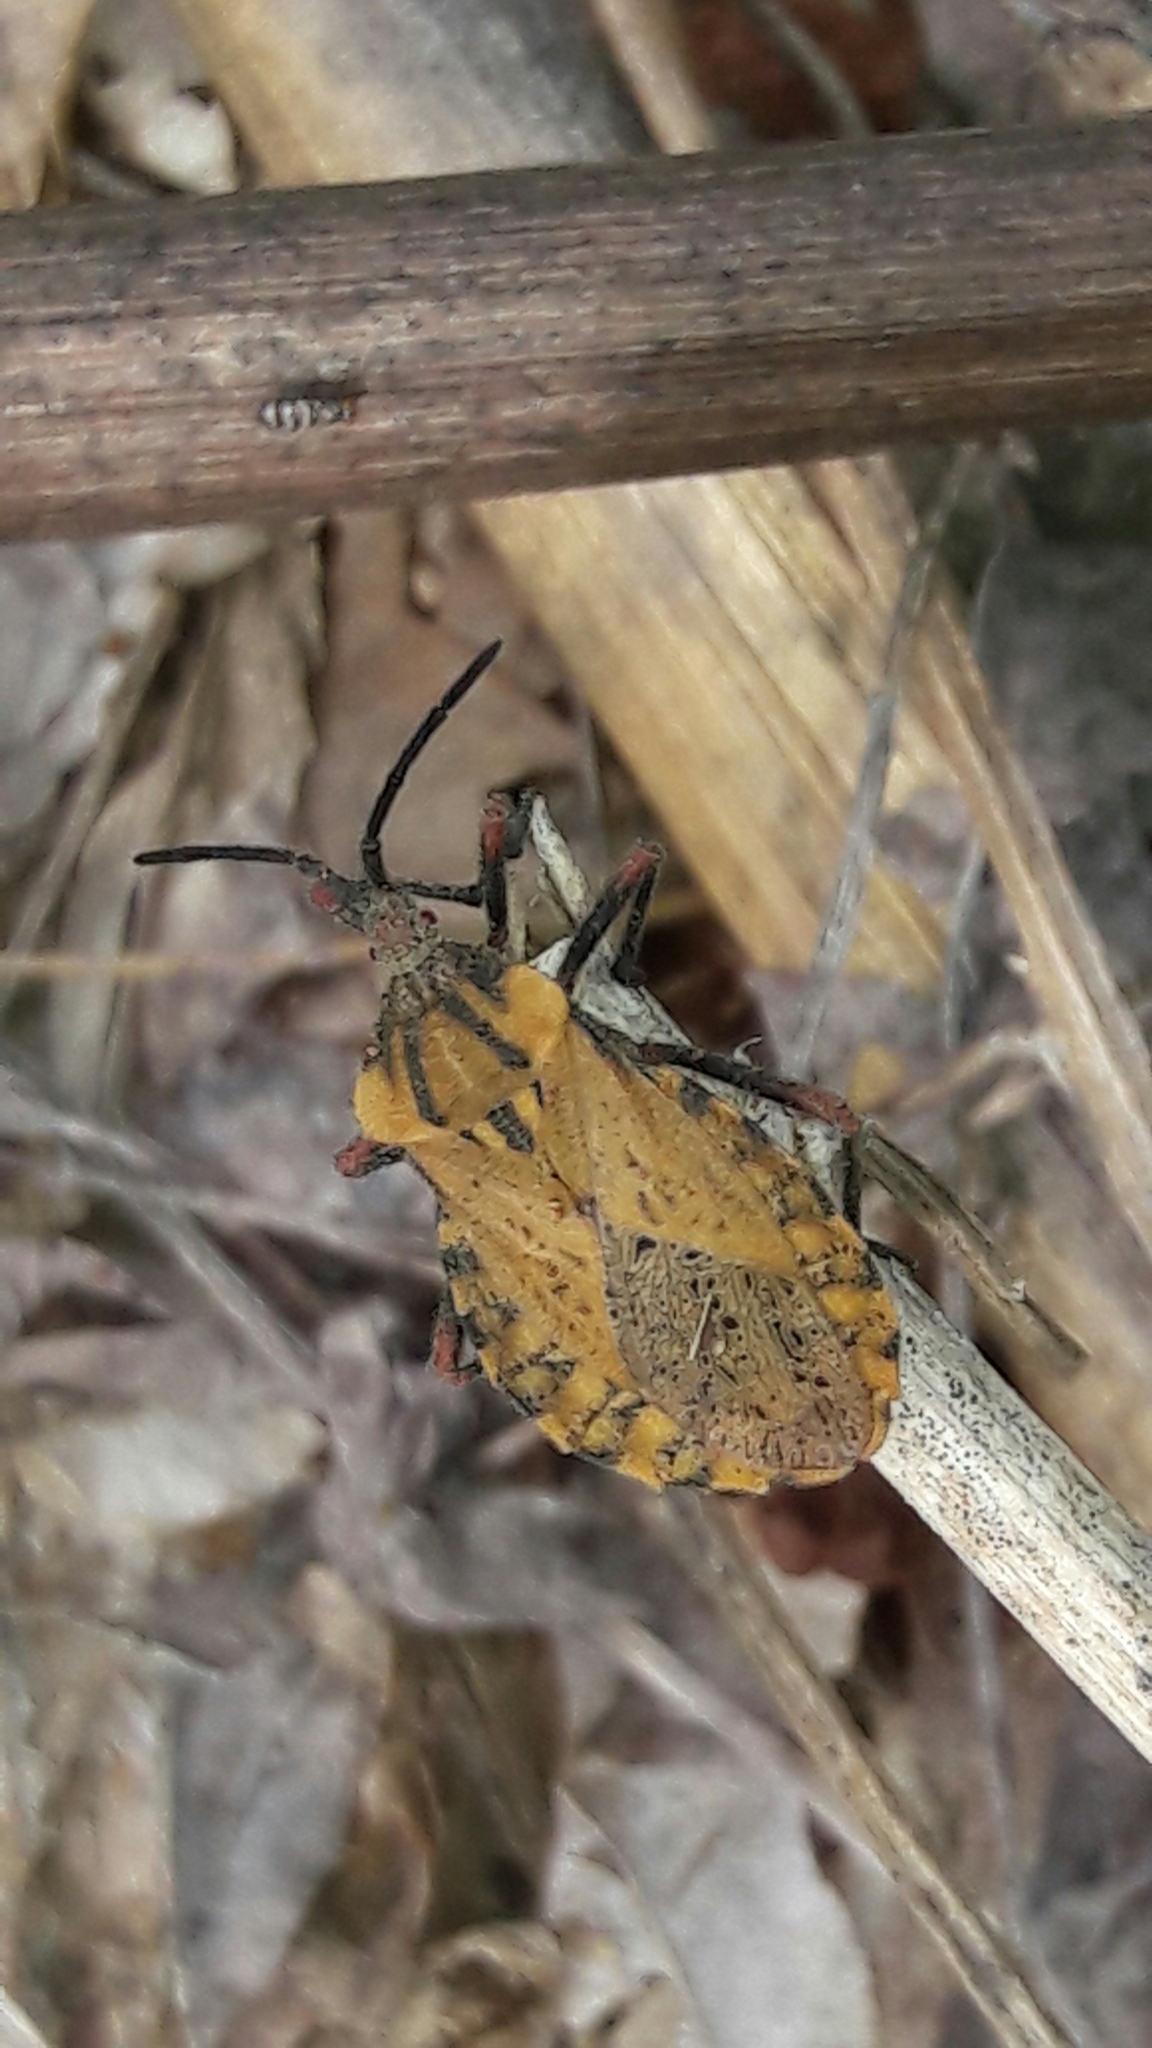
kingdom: Animalia
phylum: Arthropoda
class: Insecta
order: Hemiptera
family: Coreidae
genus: Spartocera
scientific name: Spartocera fusca
